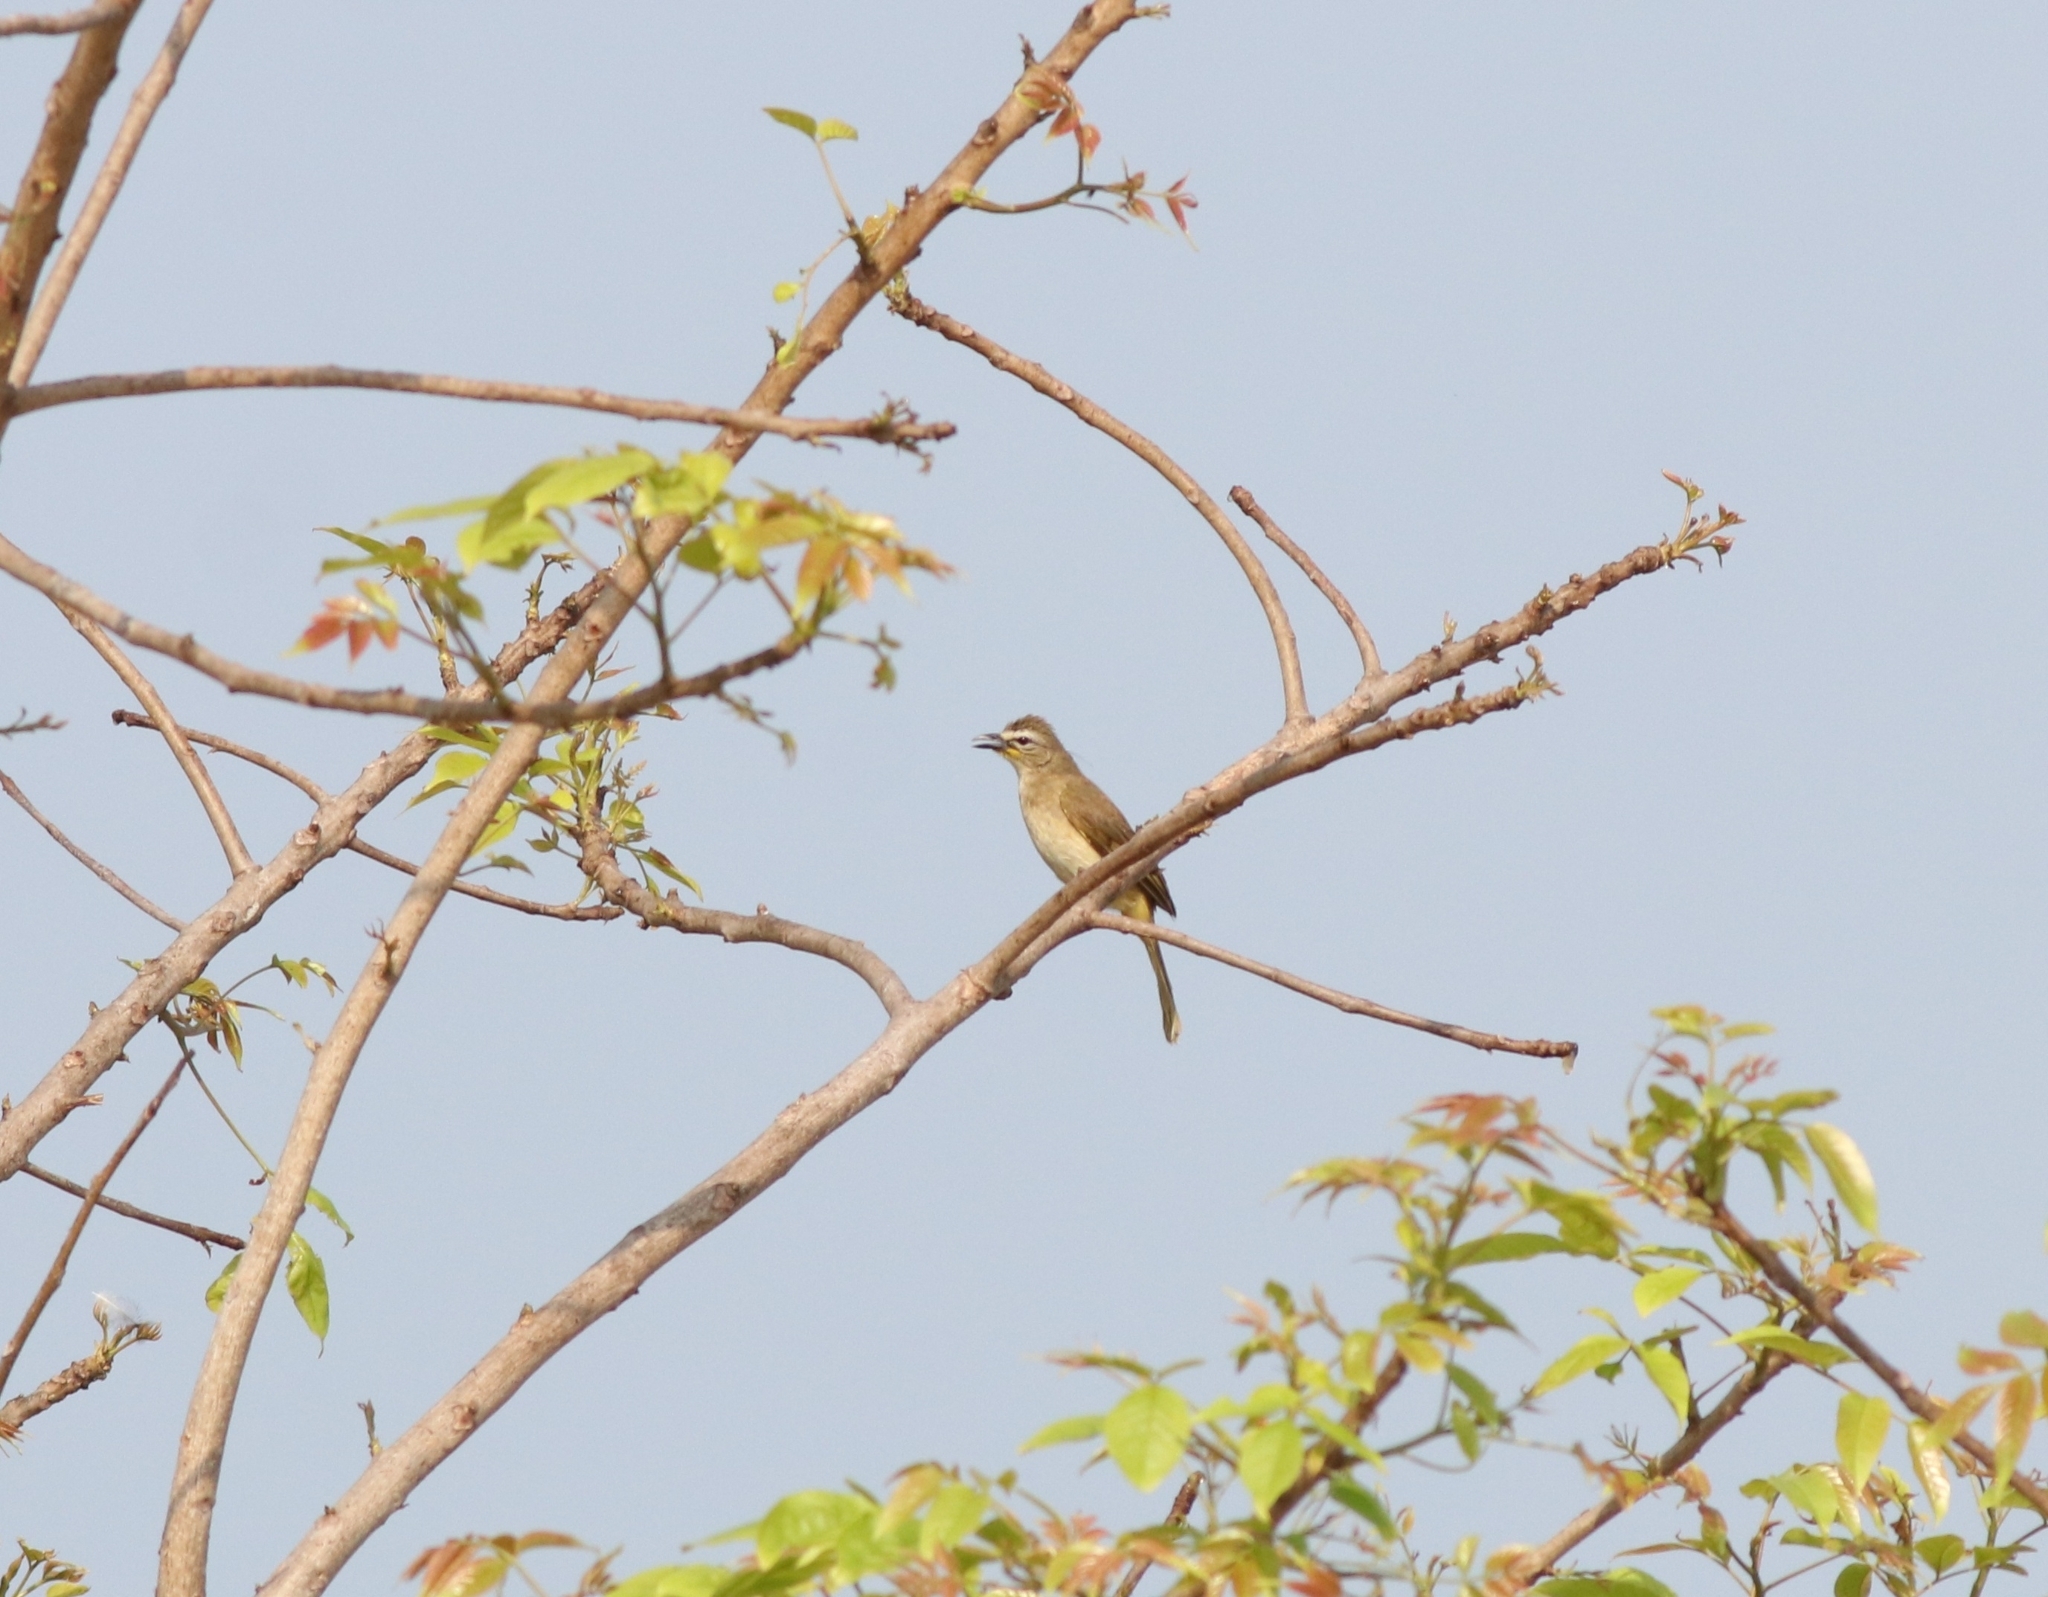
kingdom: Animalia
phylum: Chordata
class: Aves
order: Passeriformes
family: Pycnonotidae
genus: Pycnonotus
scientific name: Pycnonotus luteolus
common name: White-browed bulbul
